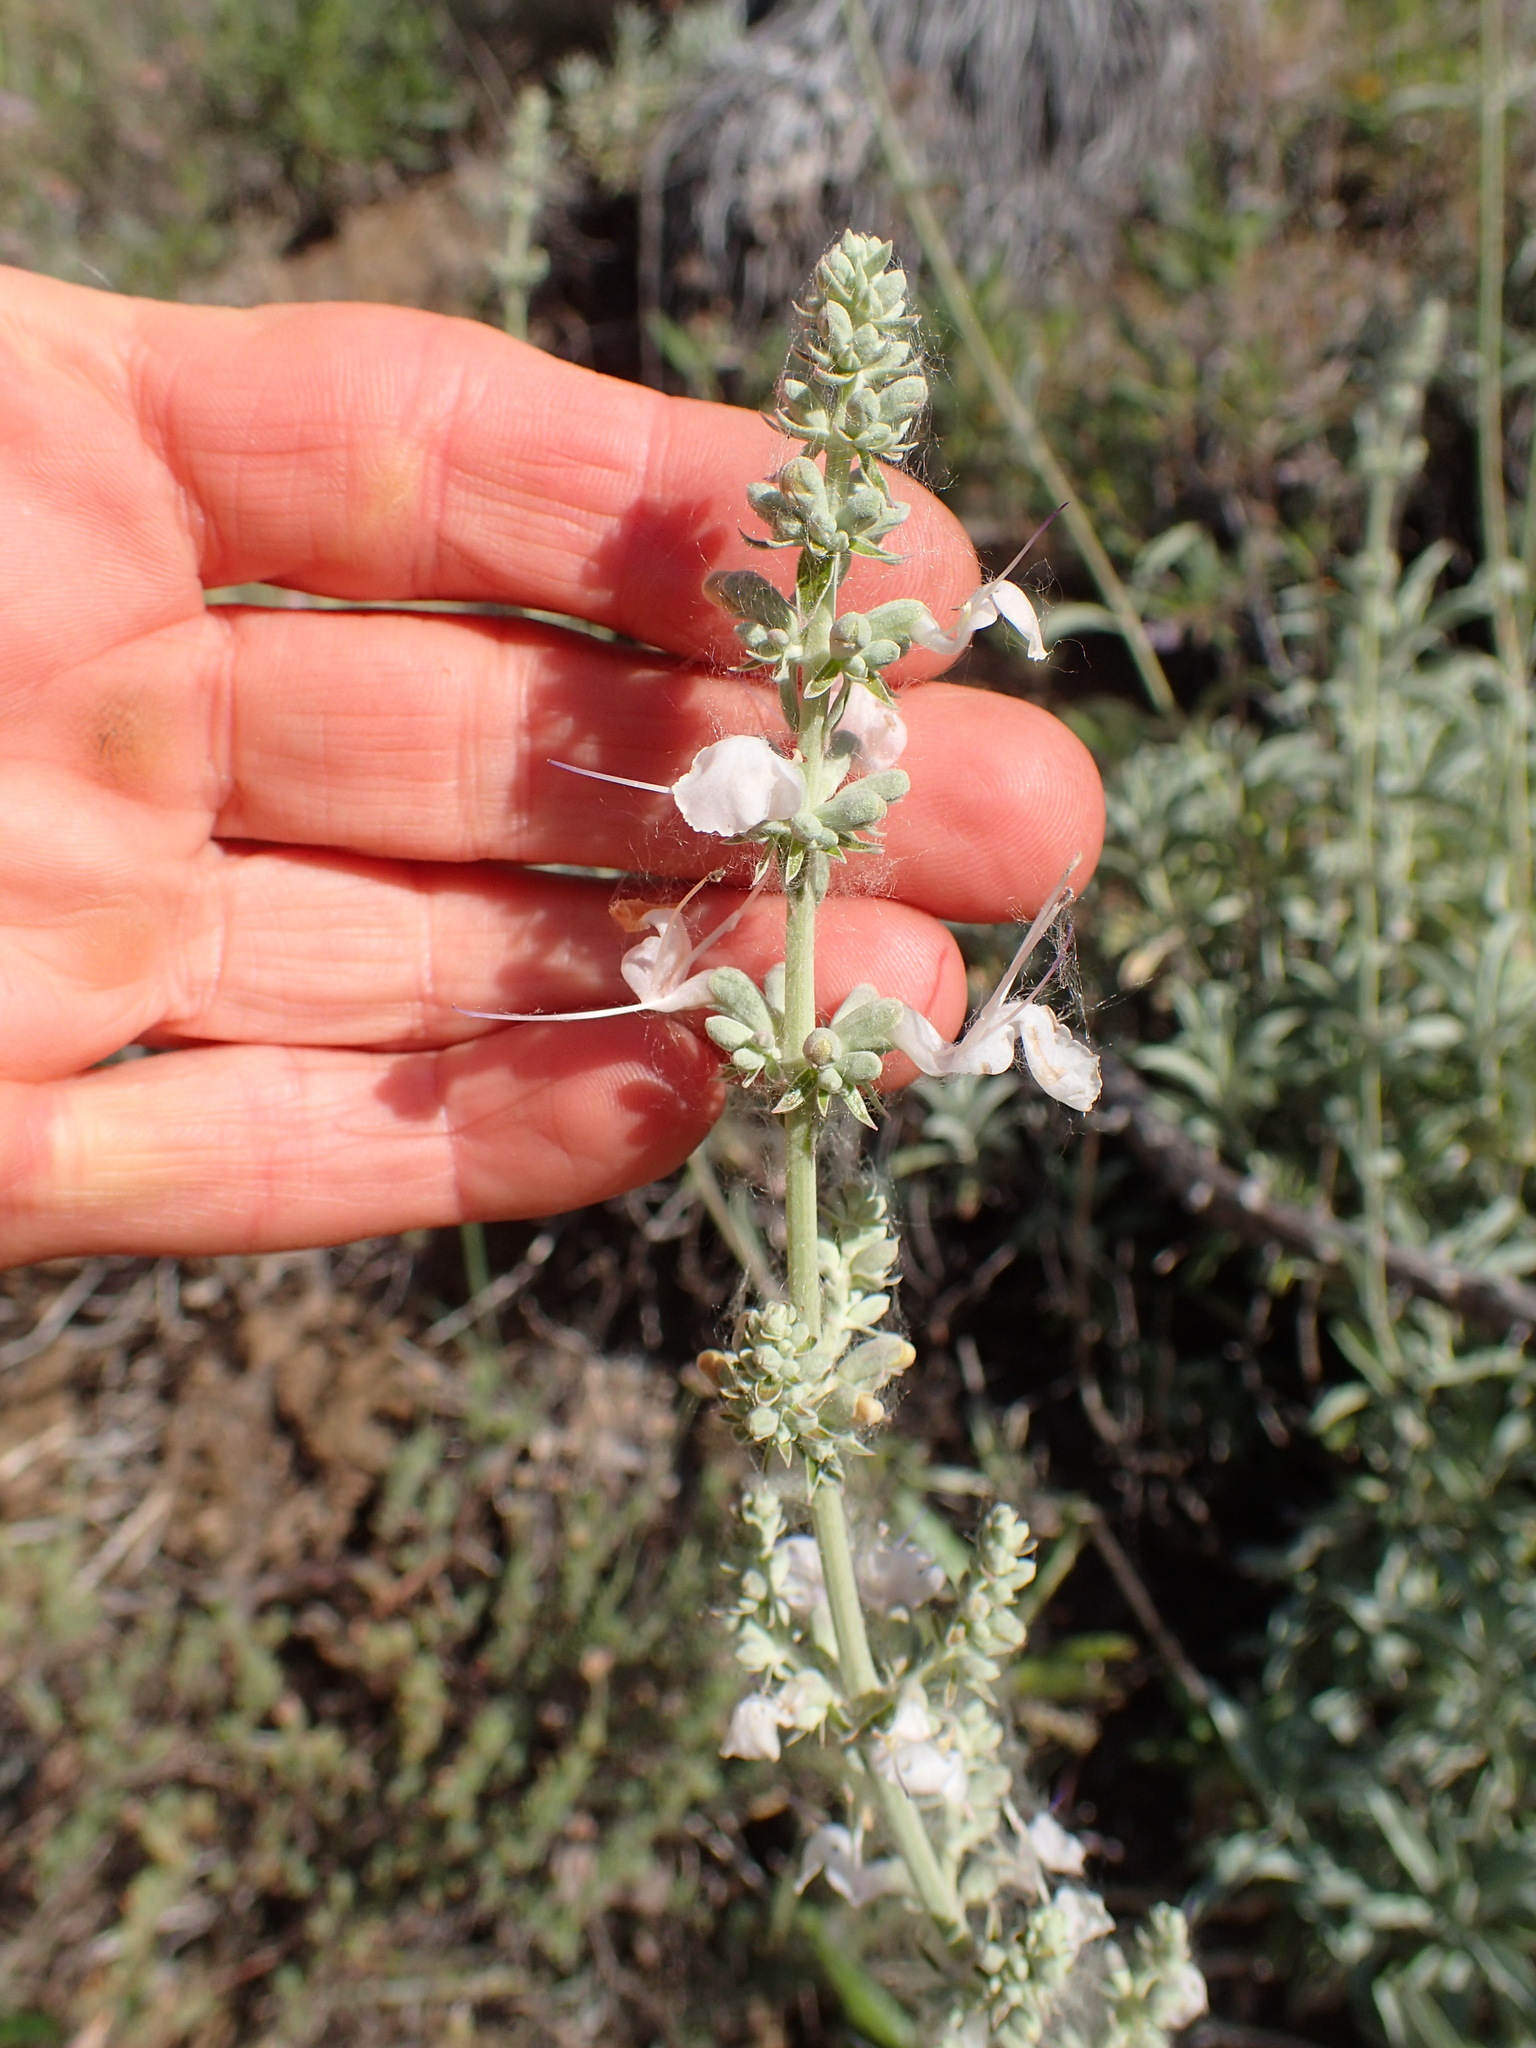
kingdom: Plantae
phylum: Tracheophyta
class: Magnoliopsida
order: Lamiales
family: Lamiaceae
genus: Salvia
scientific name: Salvia apiana
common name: White sage
